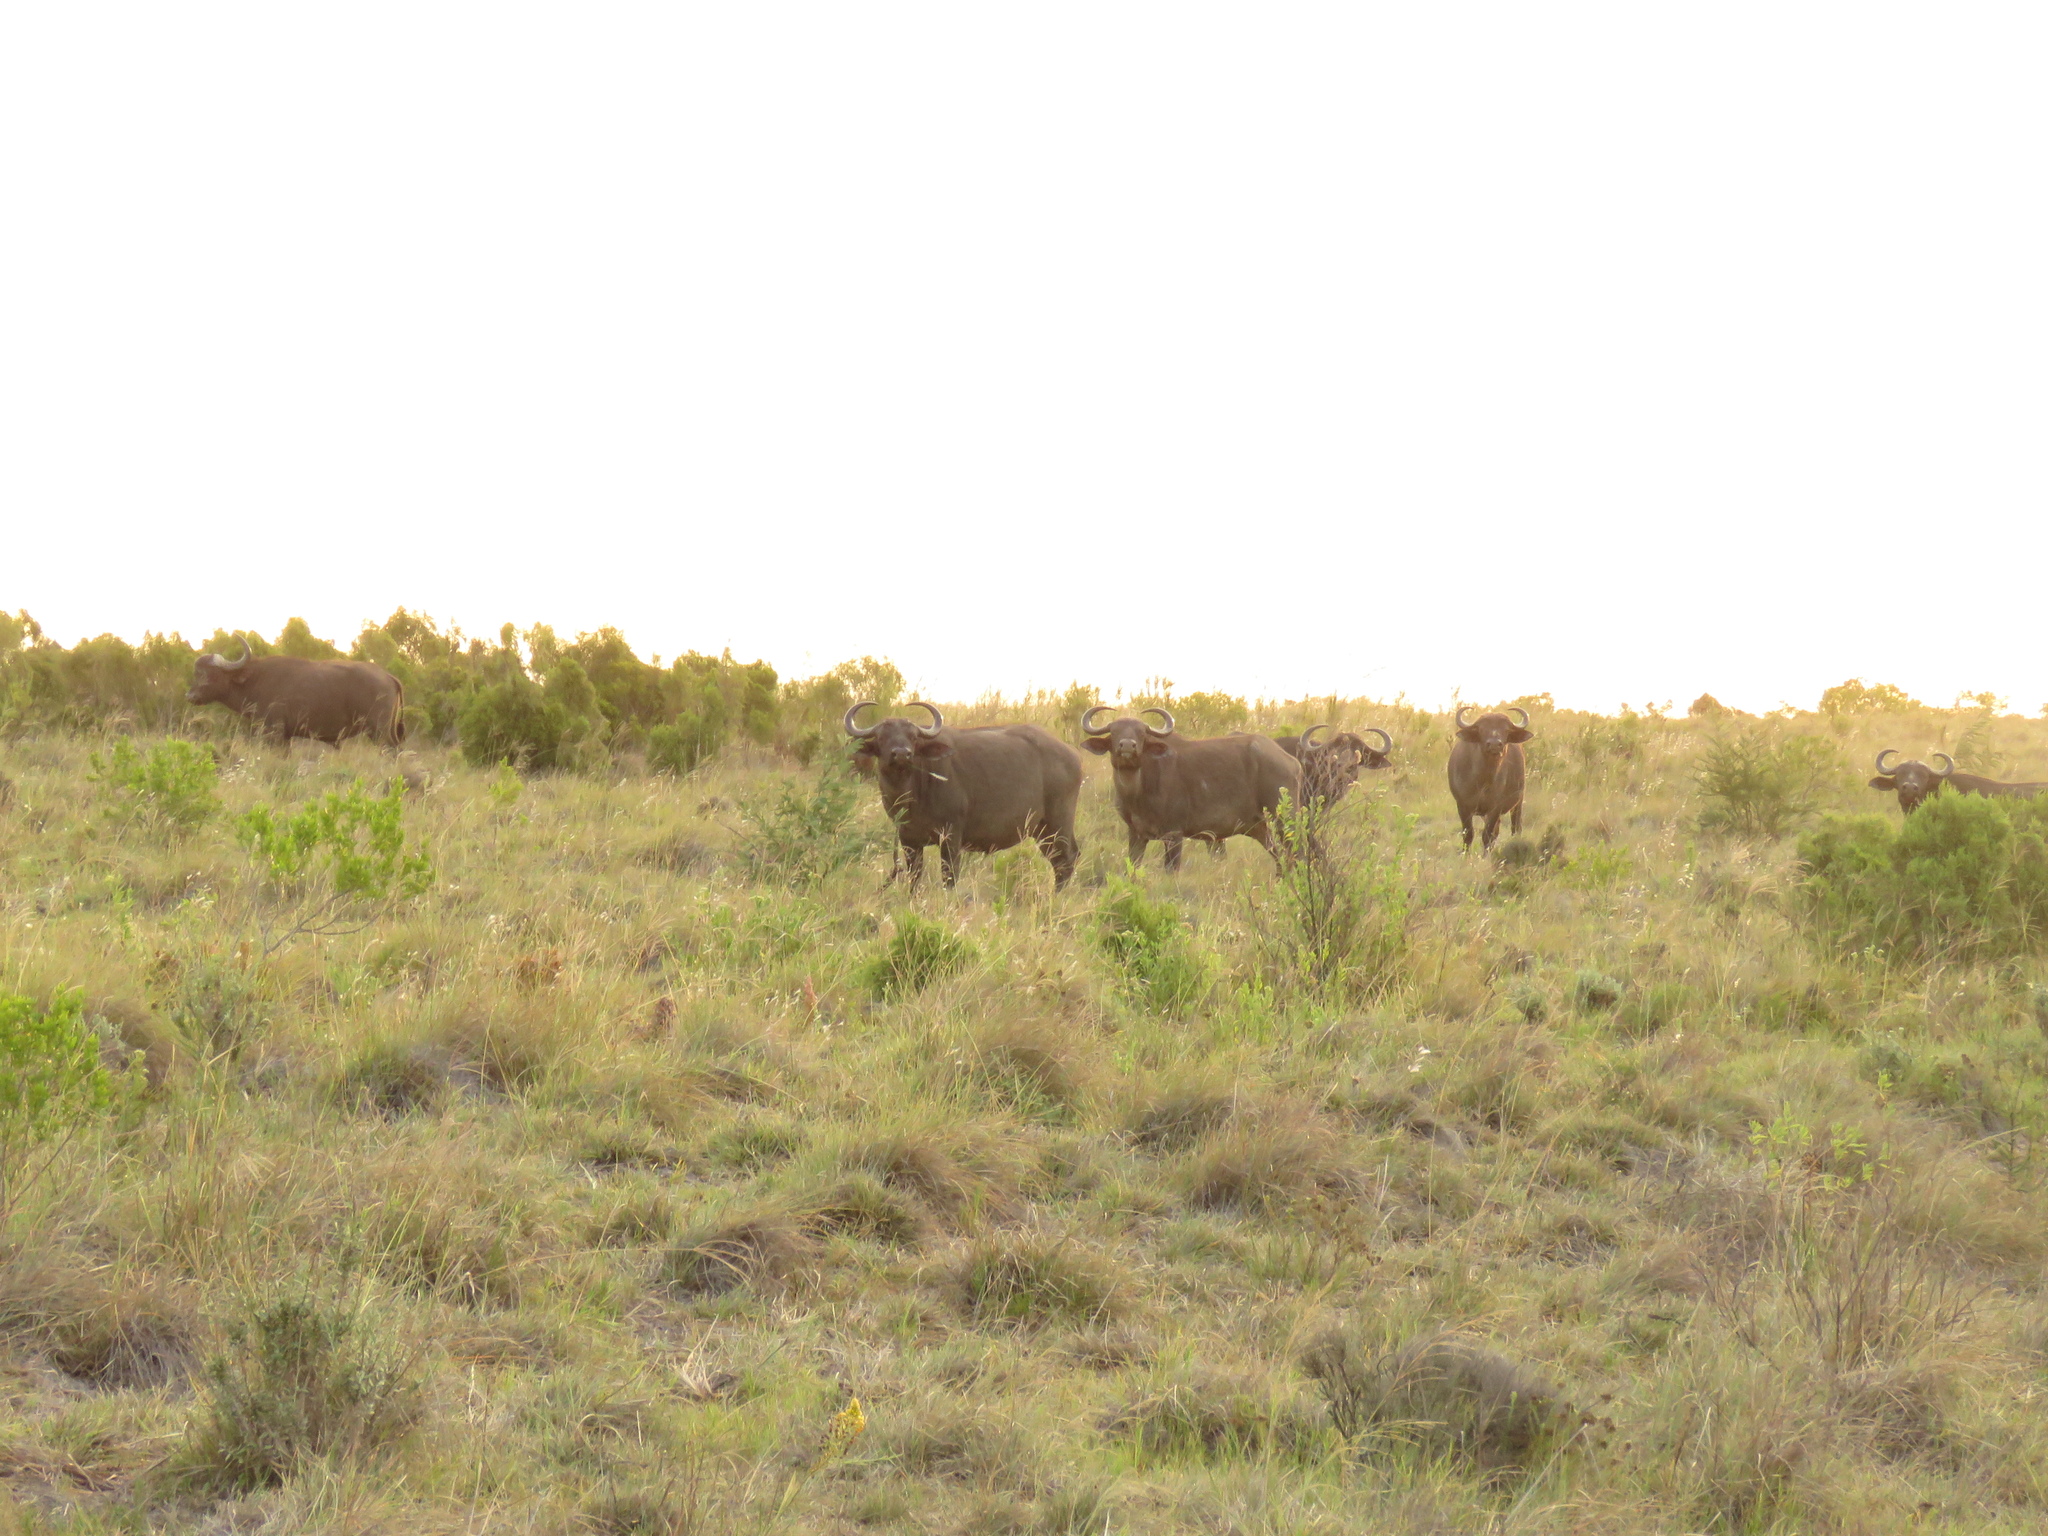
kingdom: Animalia
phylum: Chordata
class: Mammalia
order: Artiodactyla
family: Bovidae
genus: Syncerus
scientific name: Syncerus caffer
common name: African buffalo
